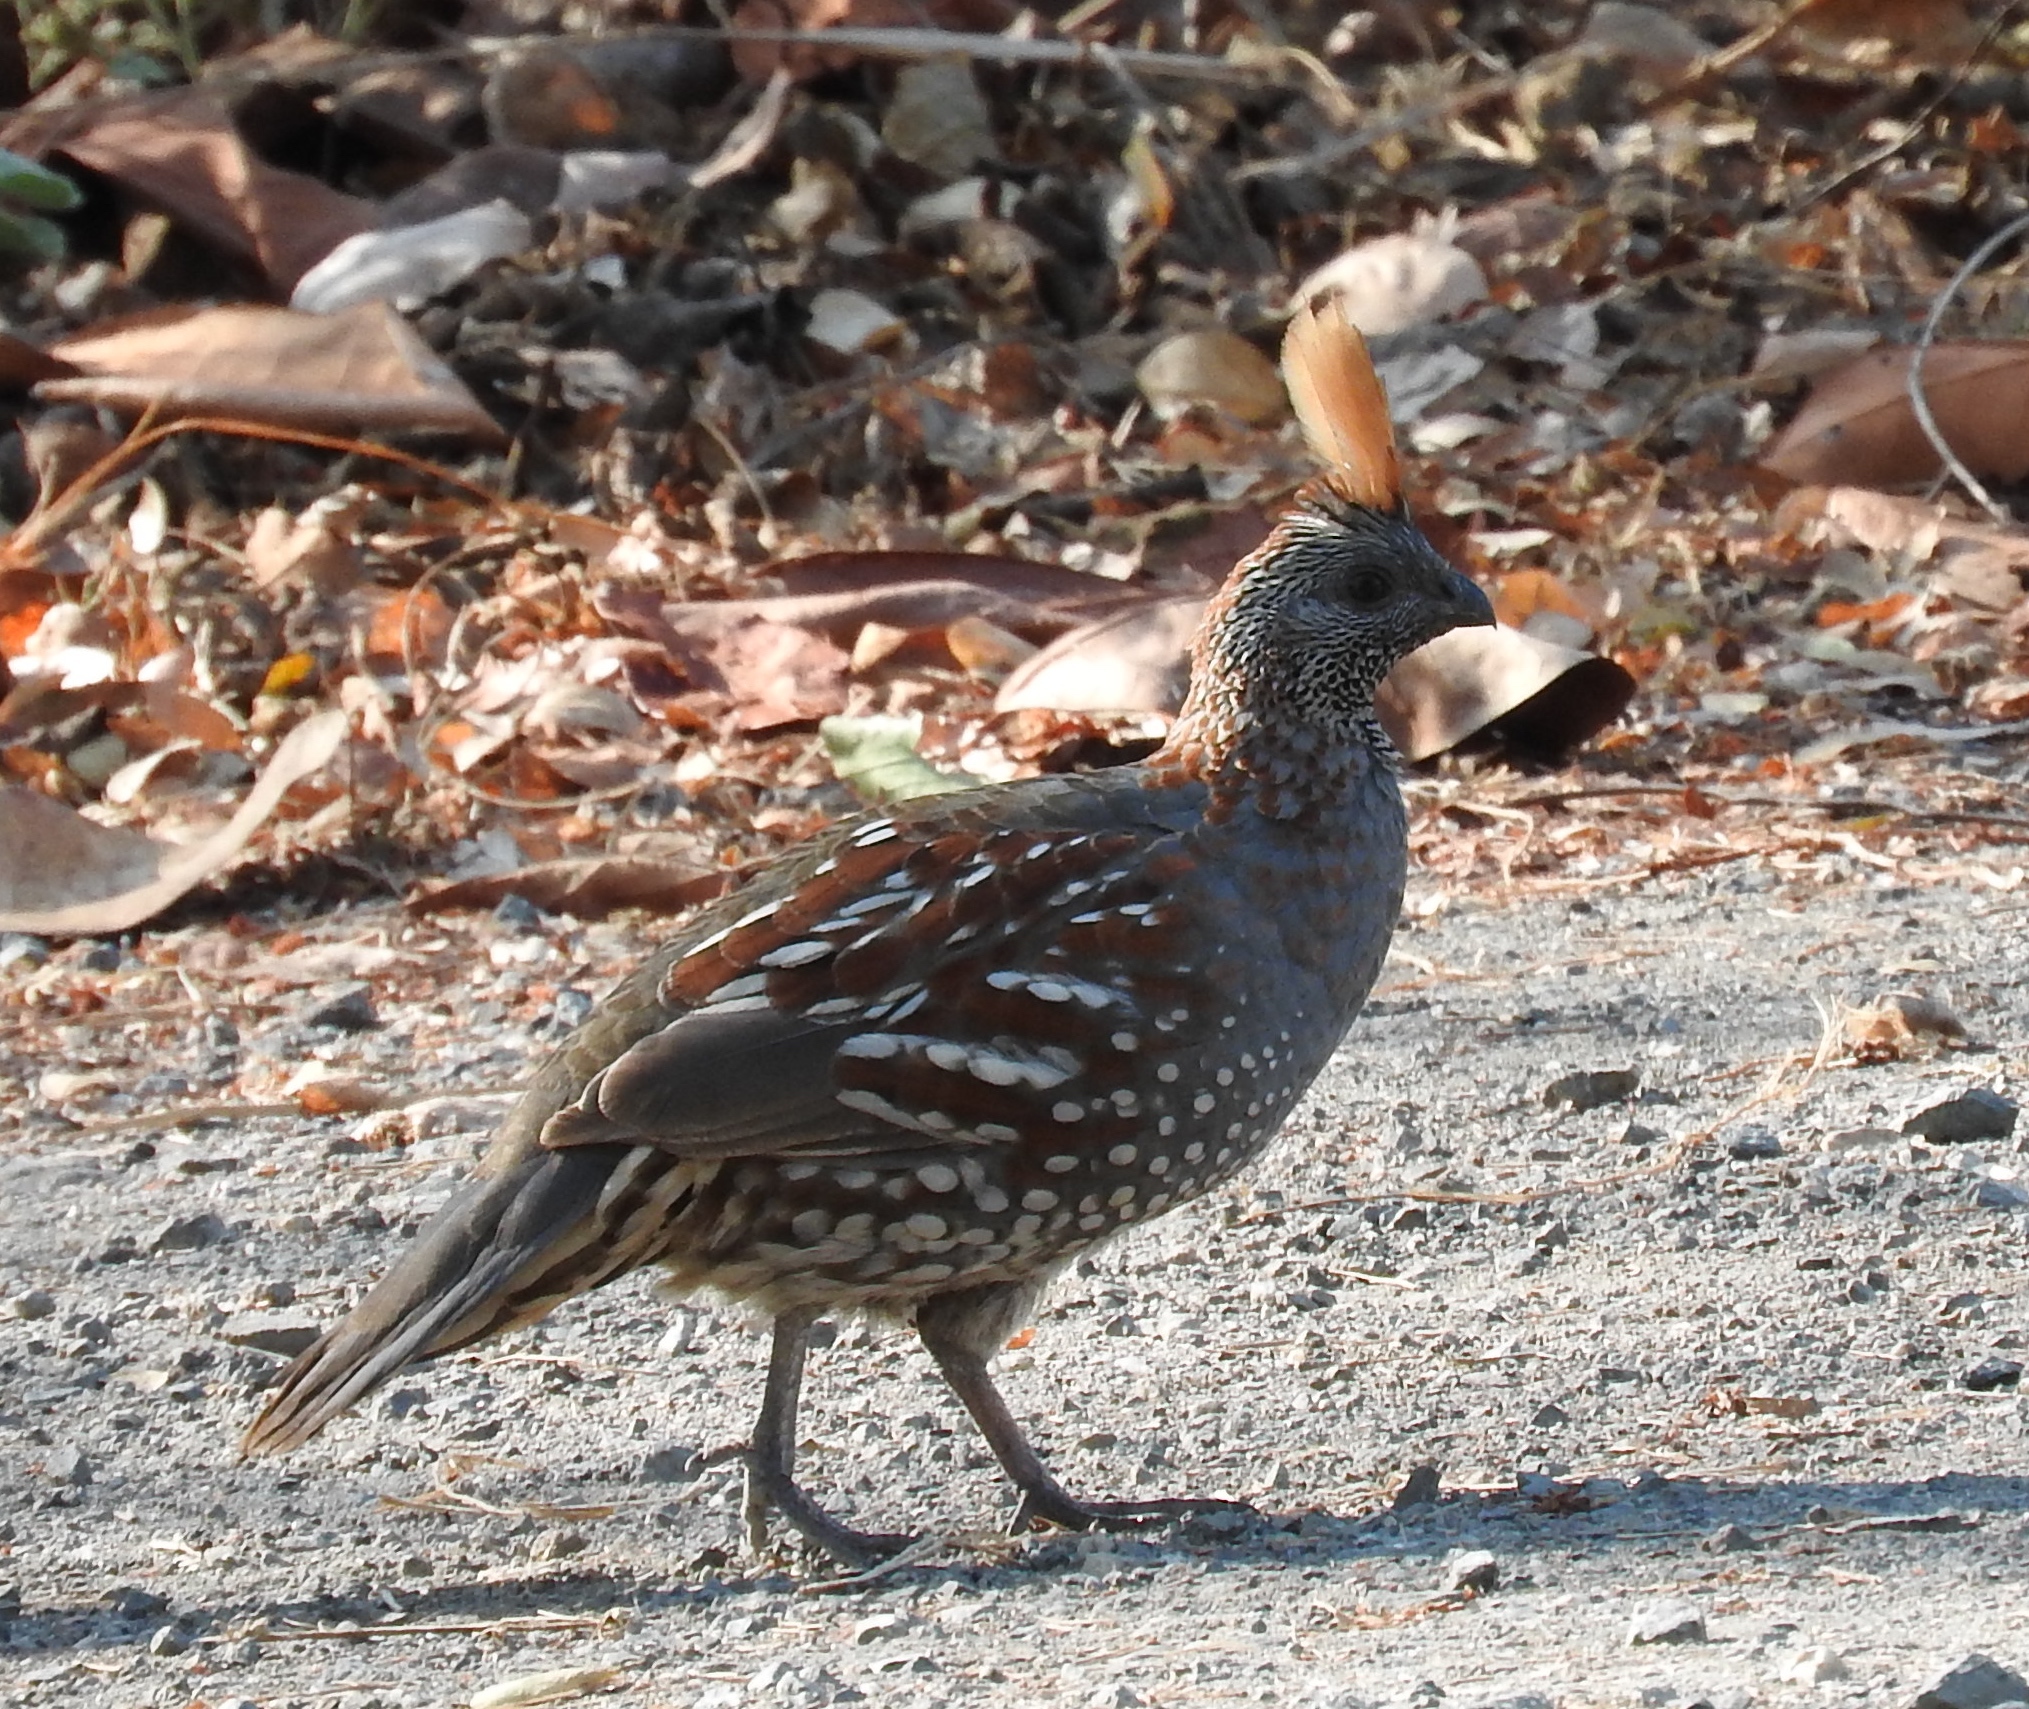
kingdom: Animalia
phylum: Chordata
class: Aves
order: Galliformes
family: Odontophoridae
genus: Callipepla
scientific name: Callipepla douglasii
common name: Elegant quail
